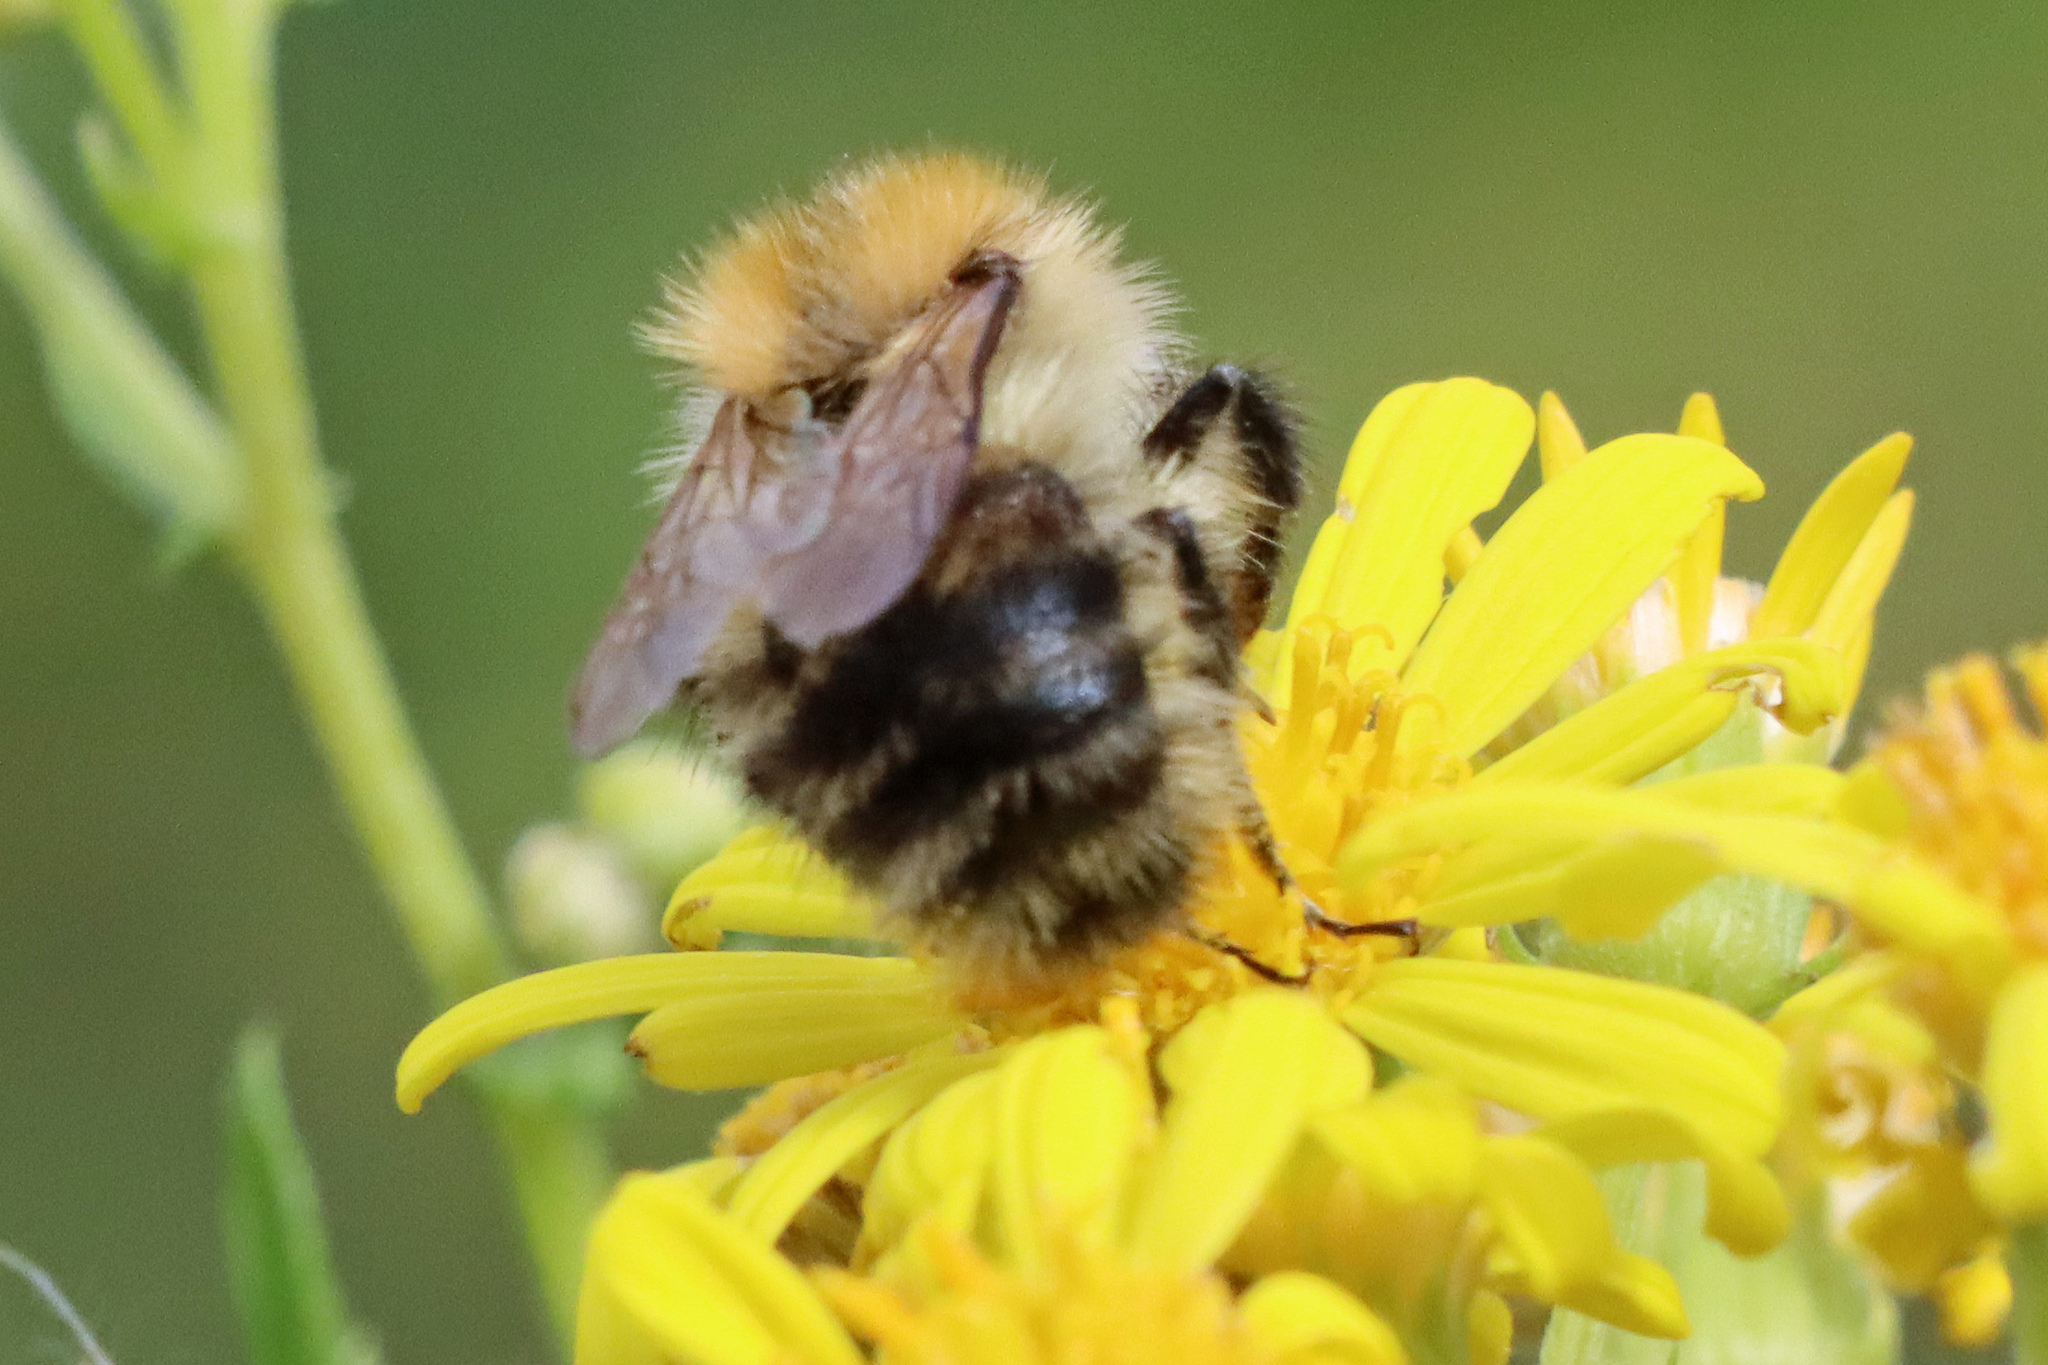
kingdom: Animalia
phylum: Arthropoda
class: Insecta
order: Hymenoptera
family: Apidae
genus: Bombus
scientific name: Bombus pascuorum
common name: Common carder bee
